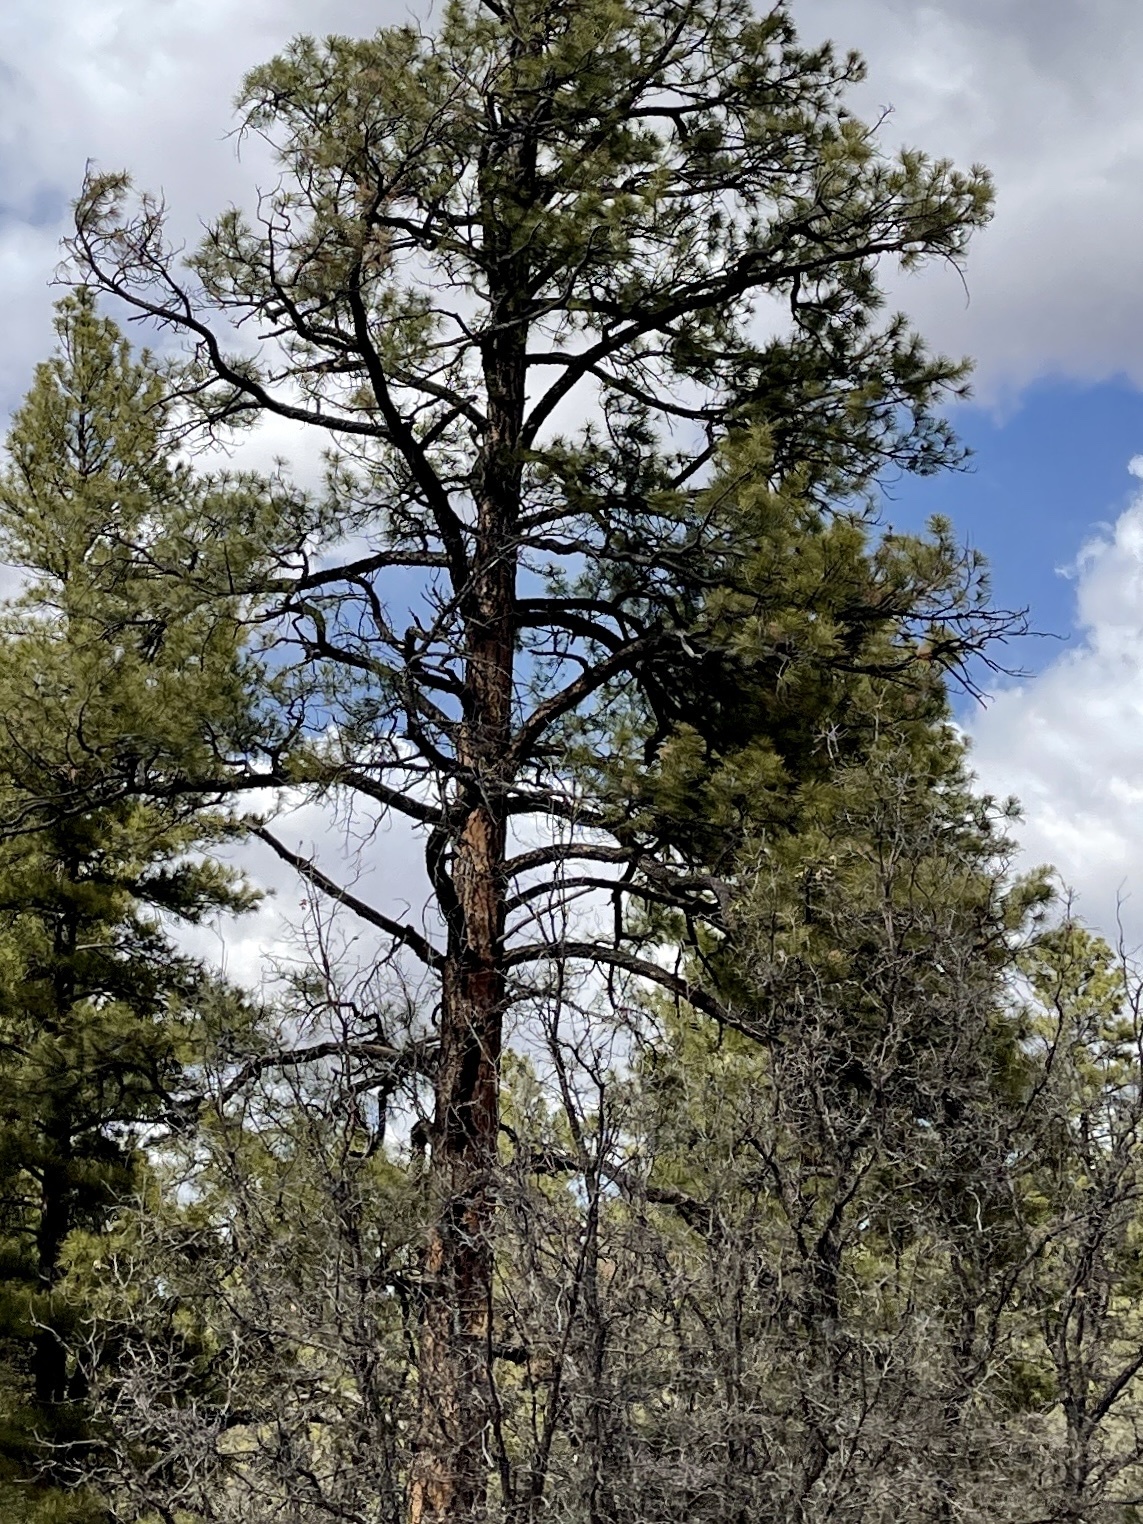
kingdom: Plantae
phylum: Tracheophyta
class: Pinopsida
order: Pinales
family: Pinaceae
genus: Pinus
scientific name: Pinus ponderosa
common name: Western yellow-pine
